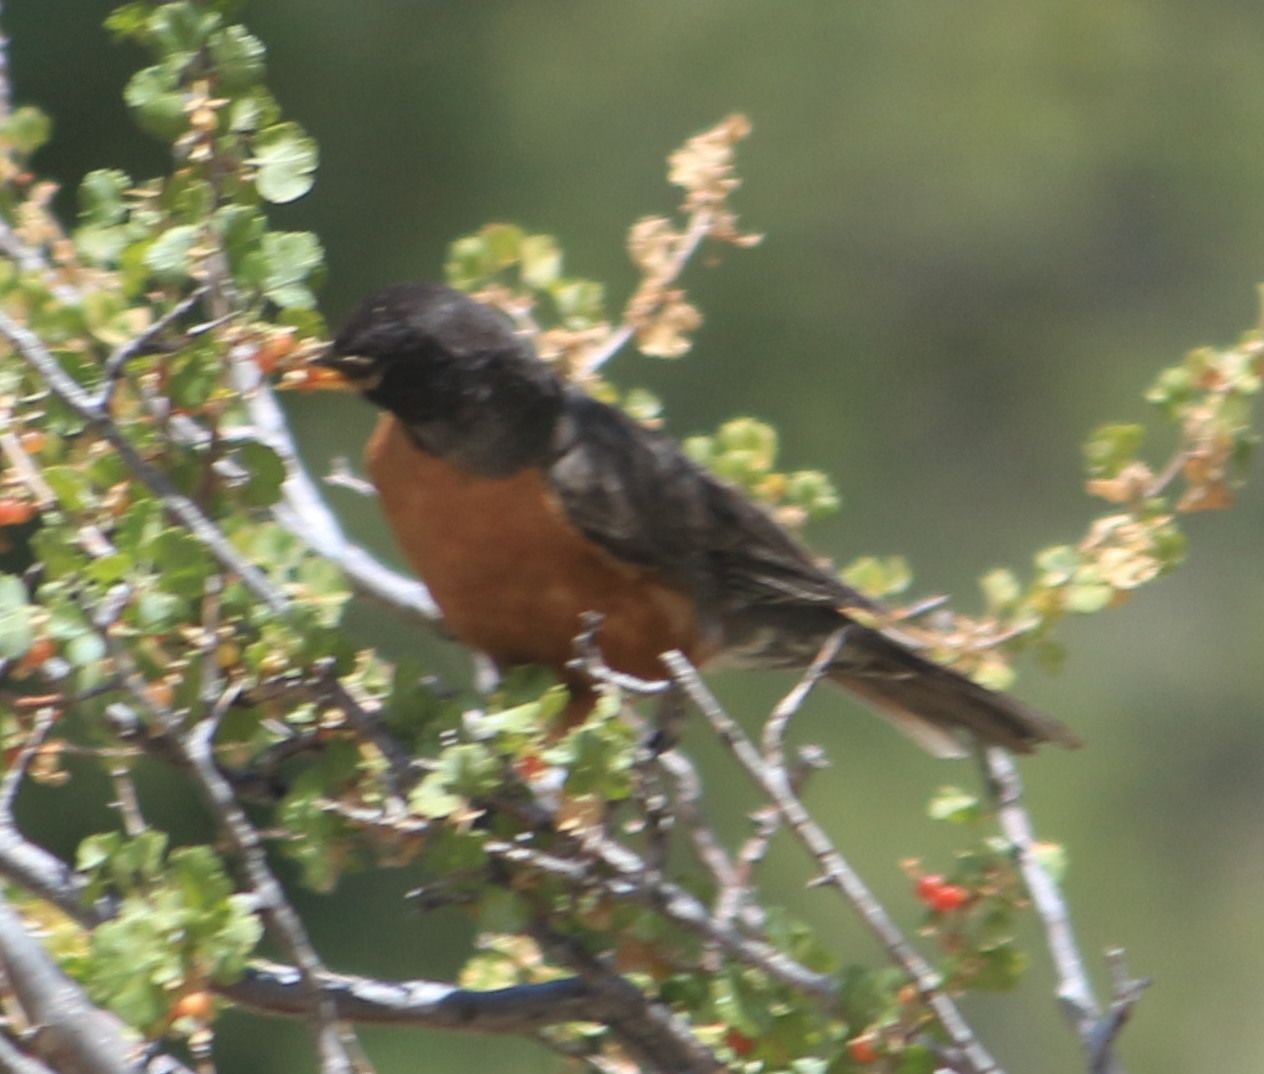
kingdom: Animalia
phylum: Chordata
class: Aves
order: Passeriformes
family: Turdidae
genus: Turdus
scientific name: Turdus migratorius
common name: American robin
